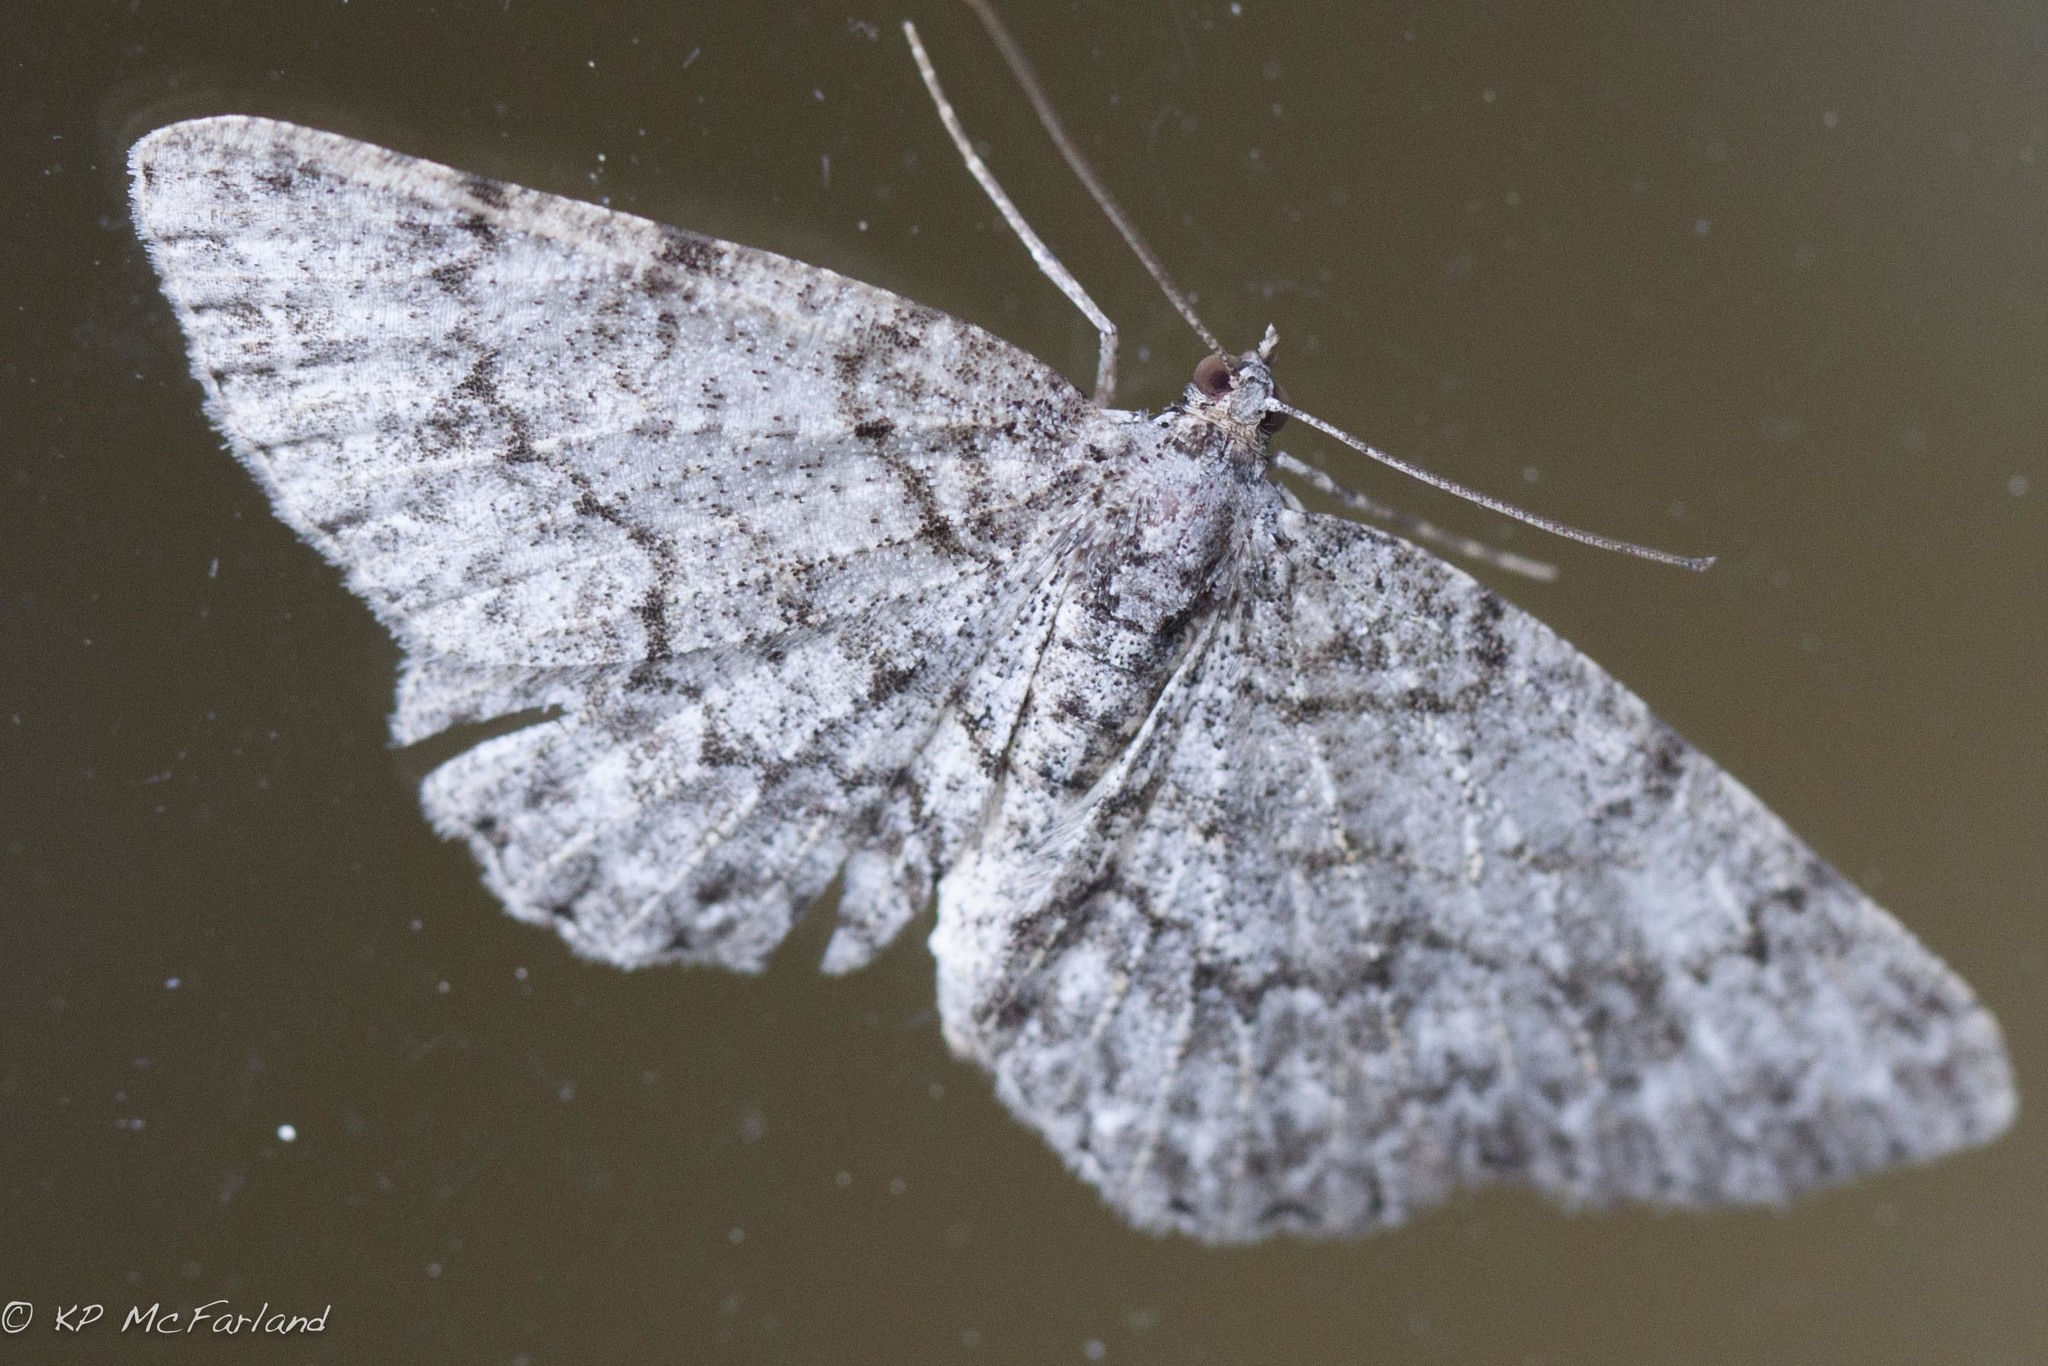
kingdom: Animalia
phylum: Arthropoda
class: Insecta
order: Lepidoptera
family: Geometridae
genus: Protoboarmia
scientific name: Protoboarmia porcelaria
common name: Porcelain gray
